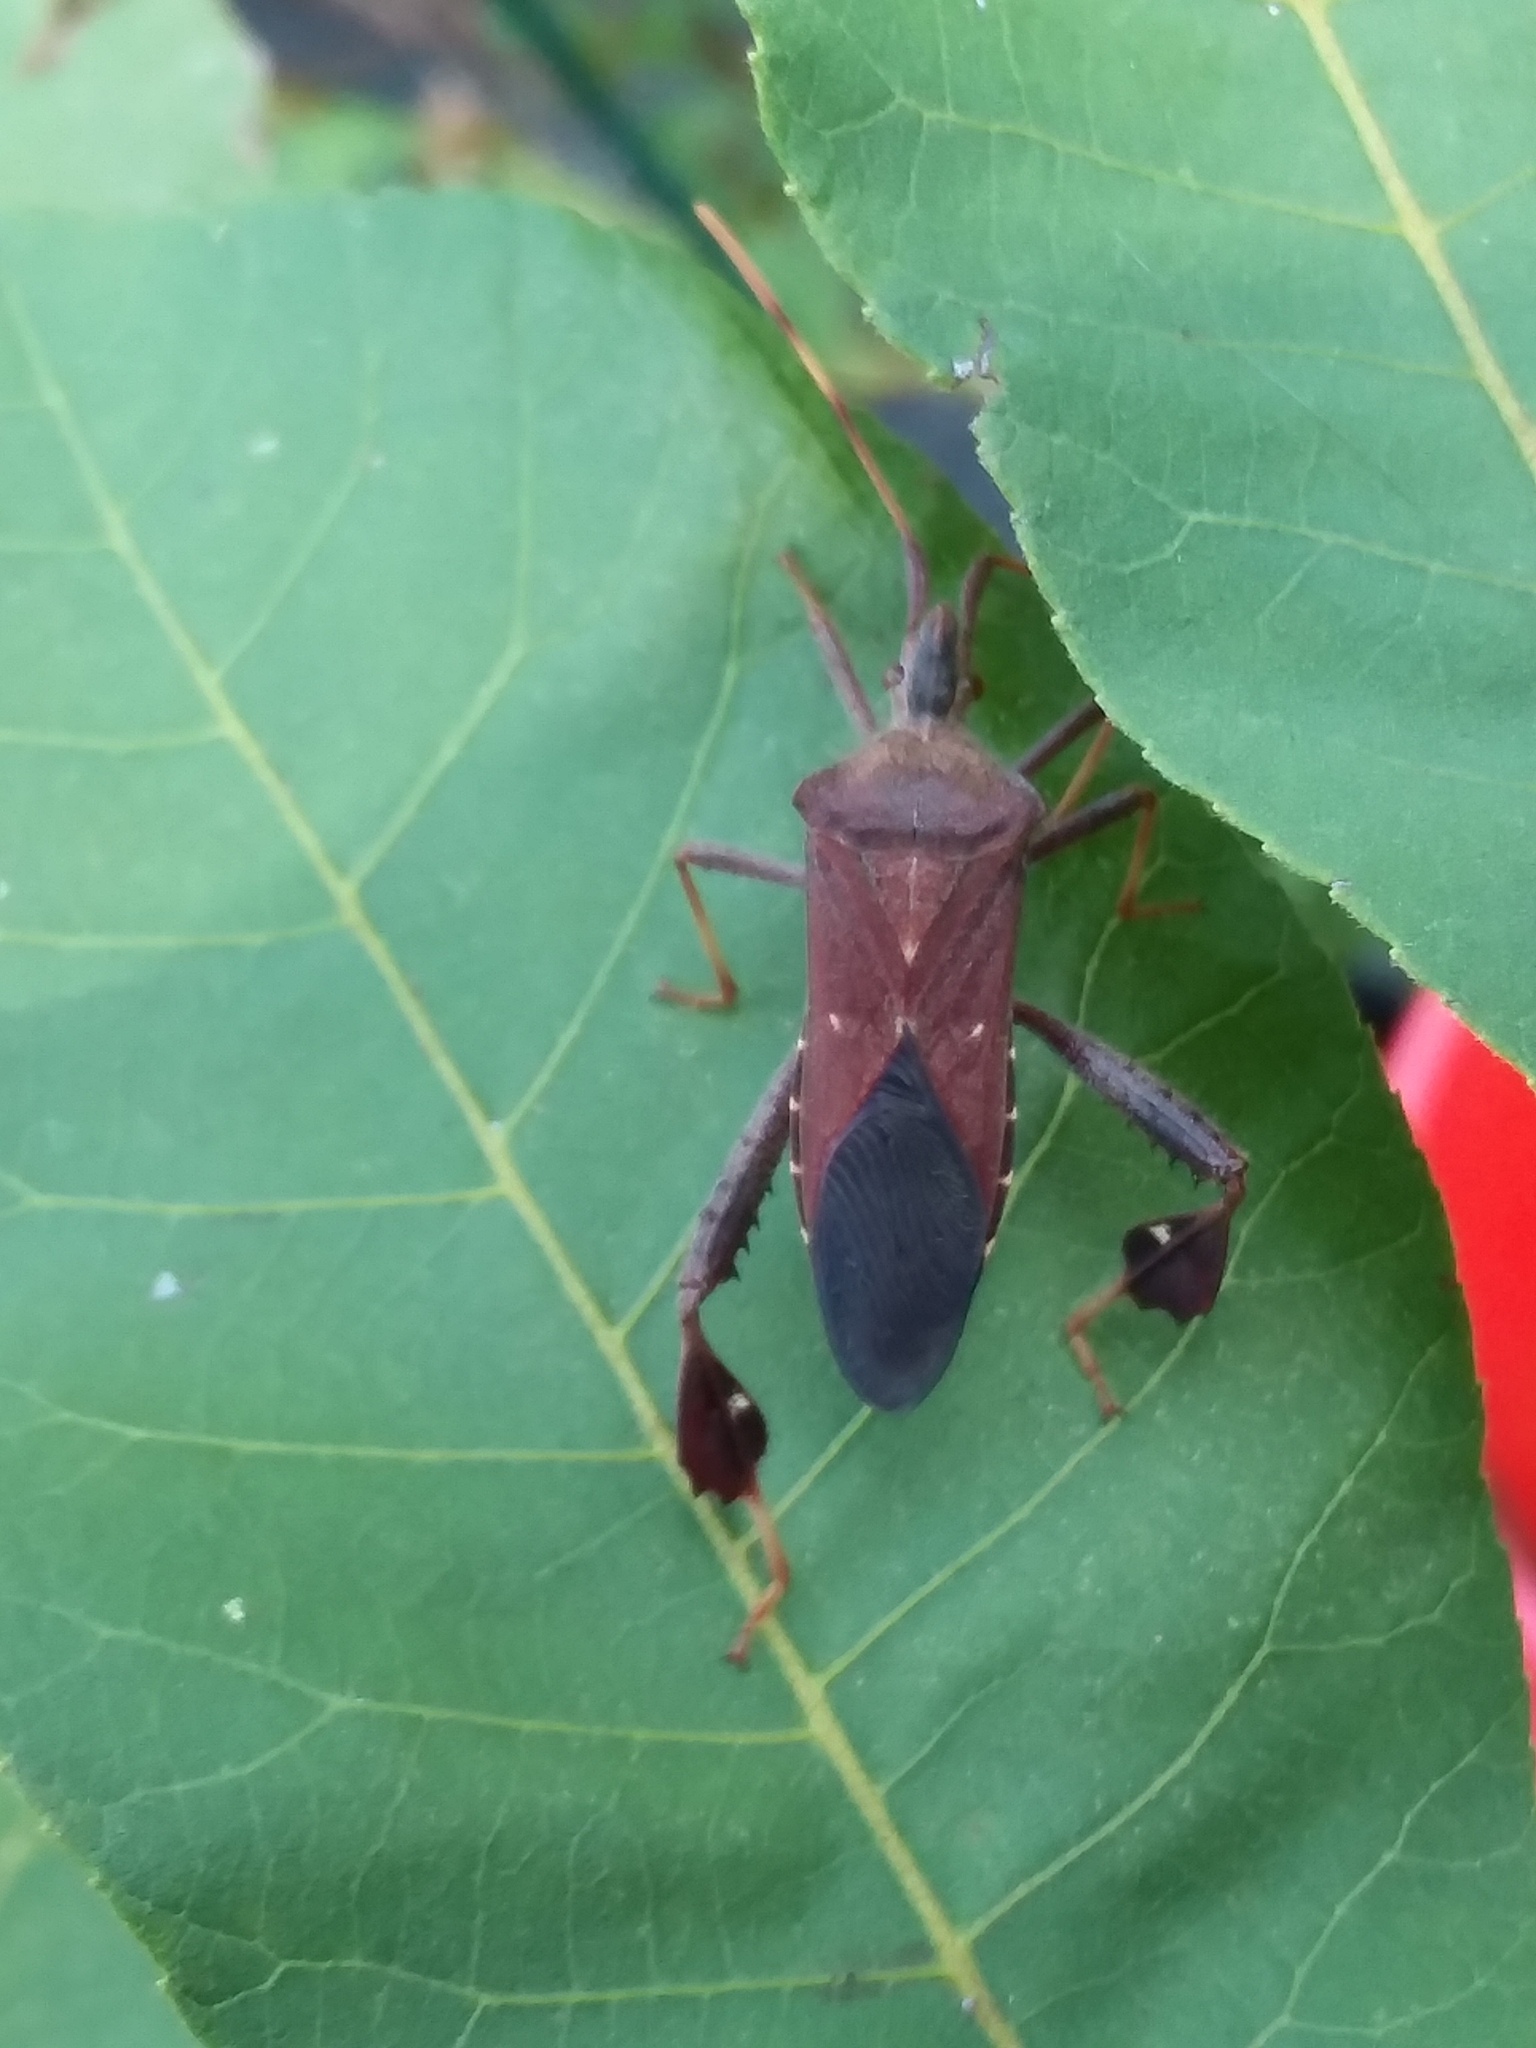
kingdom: Animalia
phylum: Arthropoda
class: Insecta
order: Hemiptera
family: Coreidae
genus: Leptoglossus
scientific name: Leptoglossus oppositus
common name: Northern leaf-footed bug
